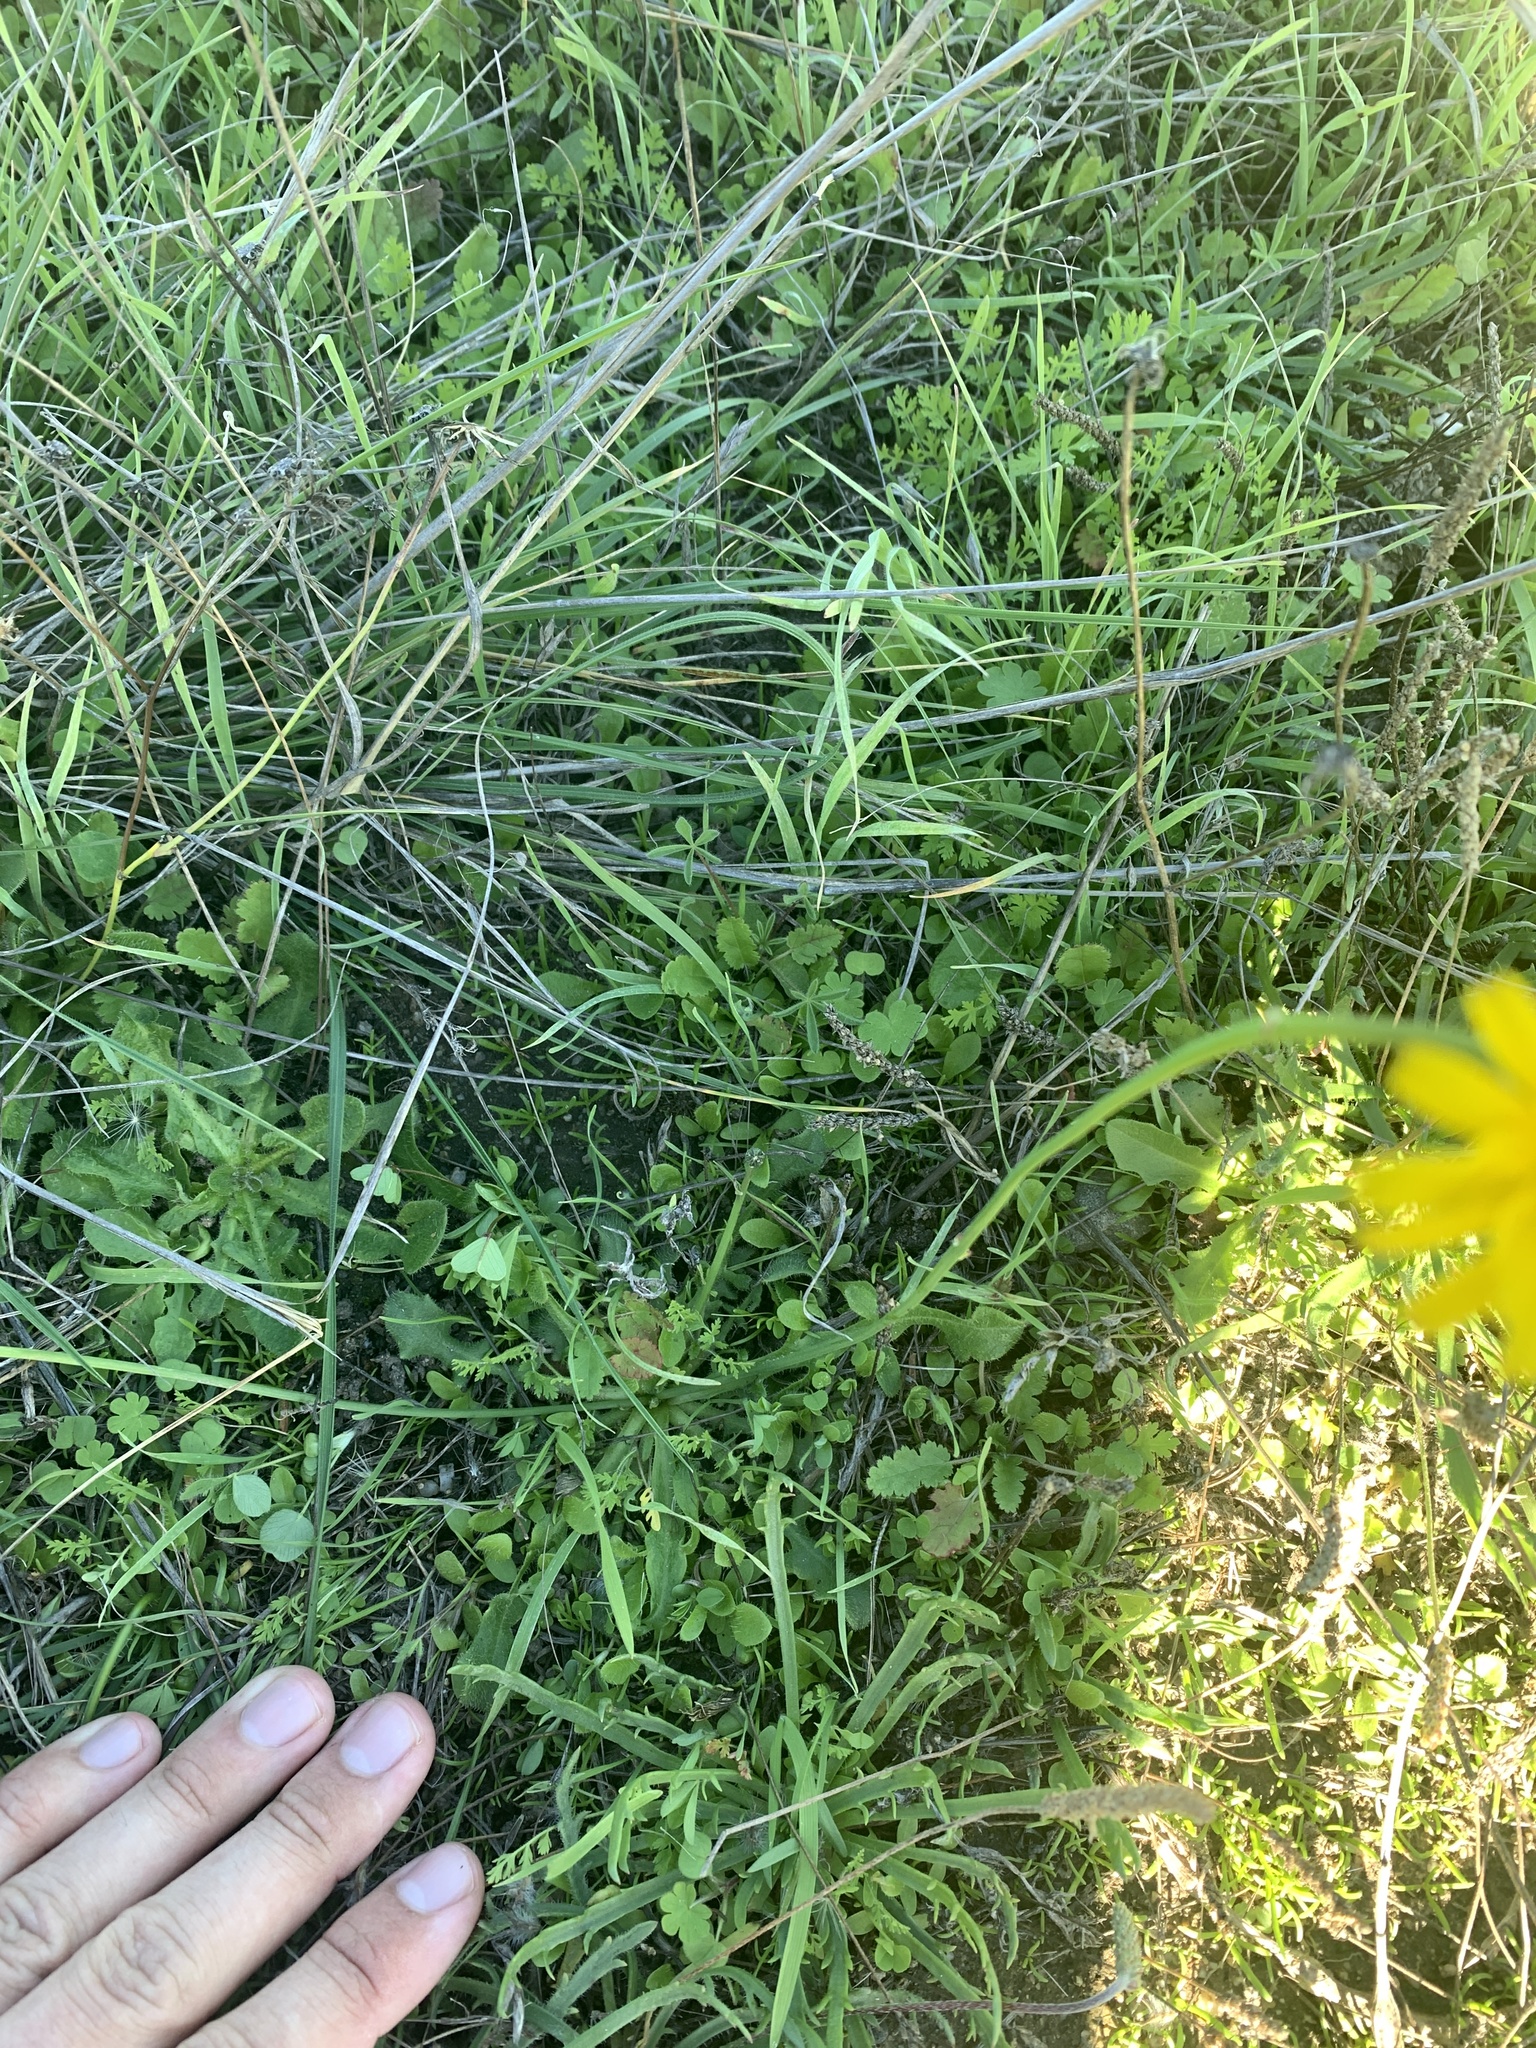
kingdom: Plantae
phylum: Tracheophyta
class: Magnoliopsida
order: Asterales
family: Asteraceae
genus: Hypochaeris
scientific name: Hypochaeris radicata
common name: Flatweed
